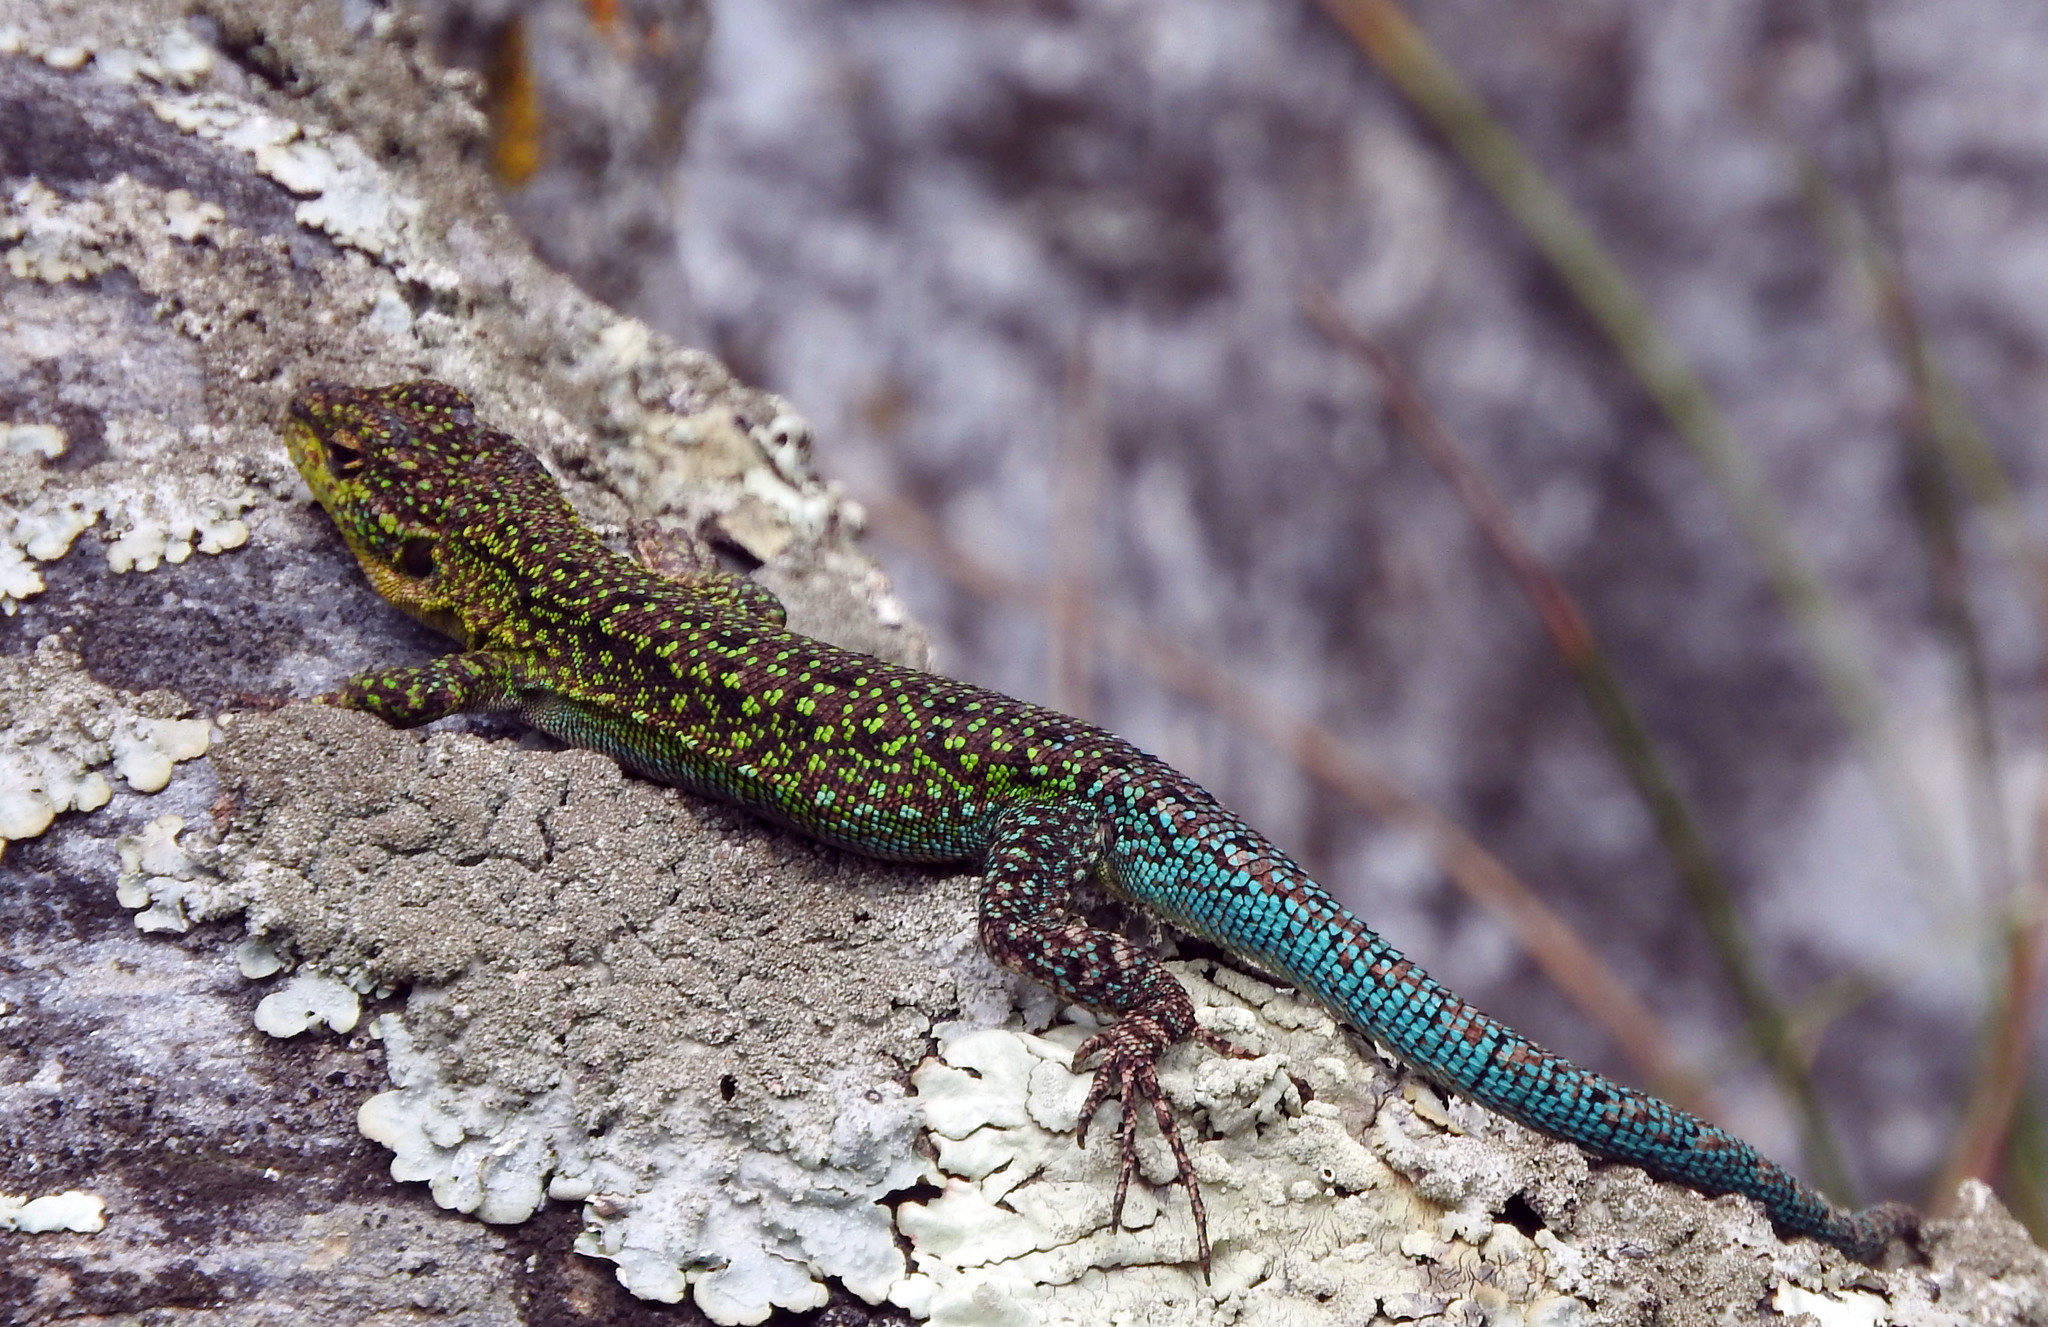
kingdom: Animalia
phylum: Chordata
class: Squamata
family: Liolaemidae
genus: Liolaemus
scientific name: Liolaemus tenuis
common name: Thin tree iguana
